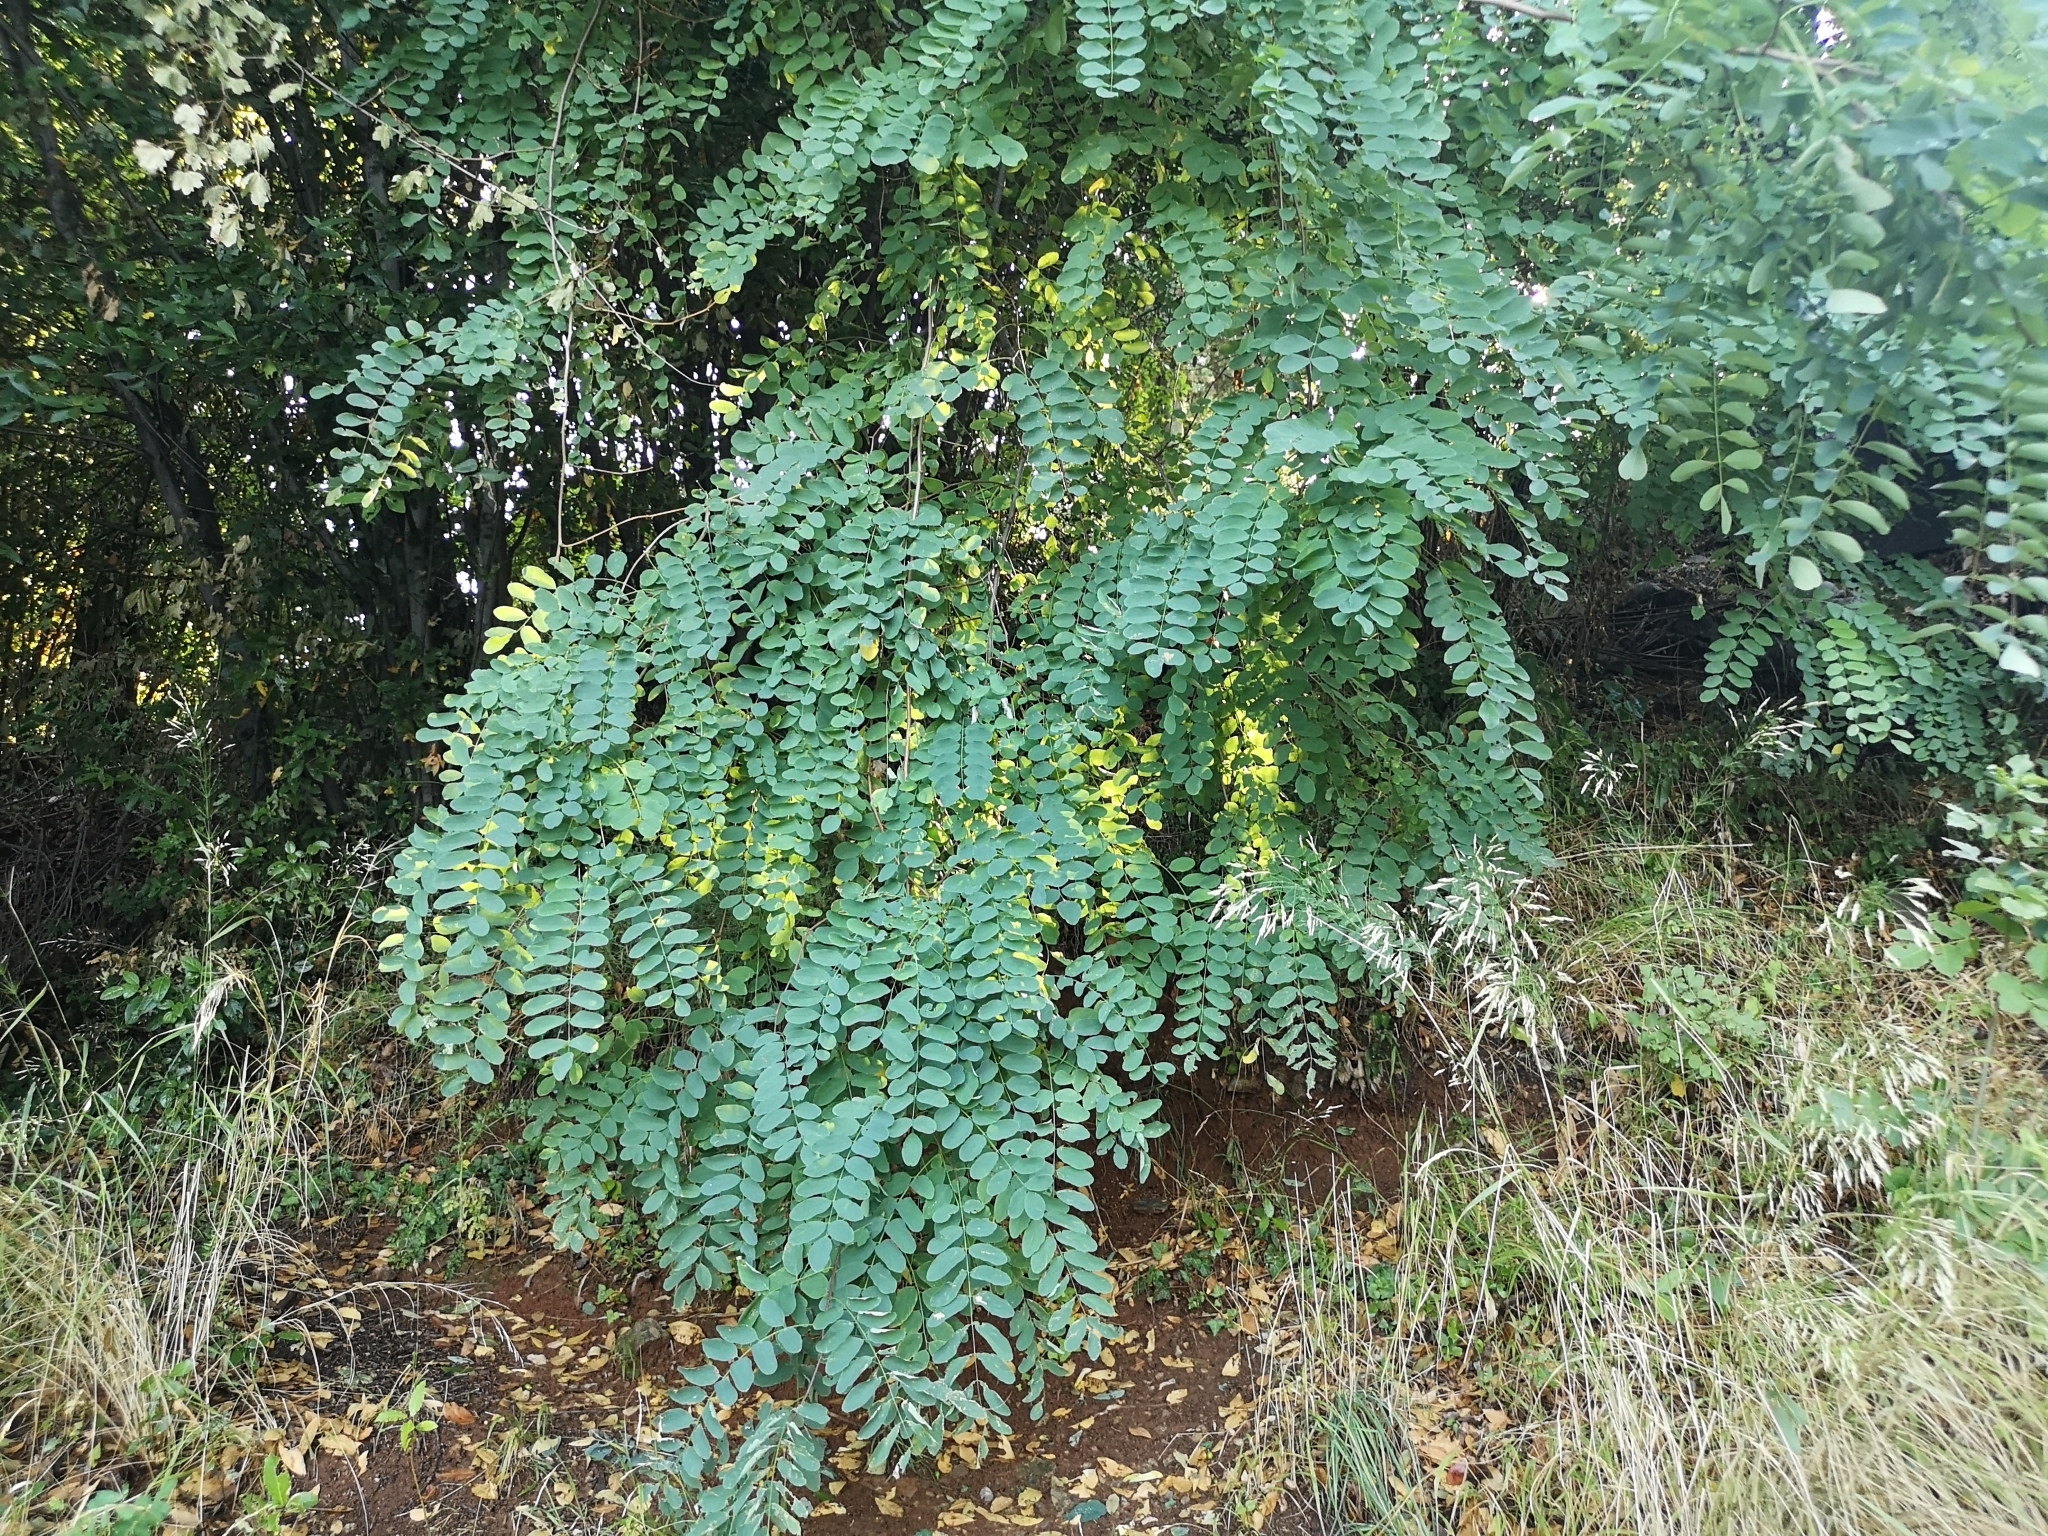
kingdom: Plantae
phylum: Tracheophyta
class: Magnoliopsida
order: Fabales
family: Fabaceae
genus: Robinia
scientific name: Robinia pseudoacacia
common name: Black locust
